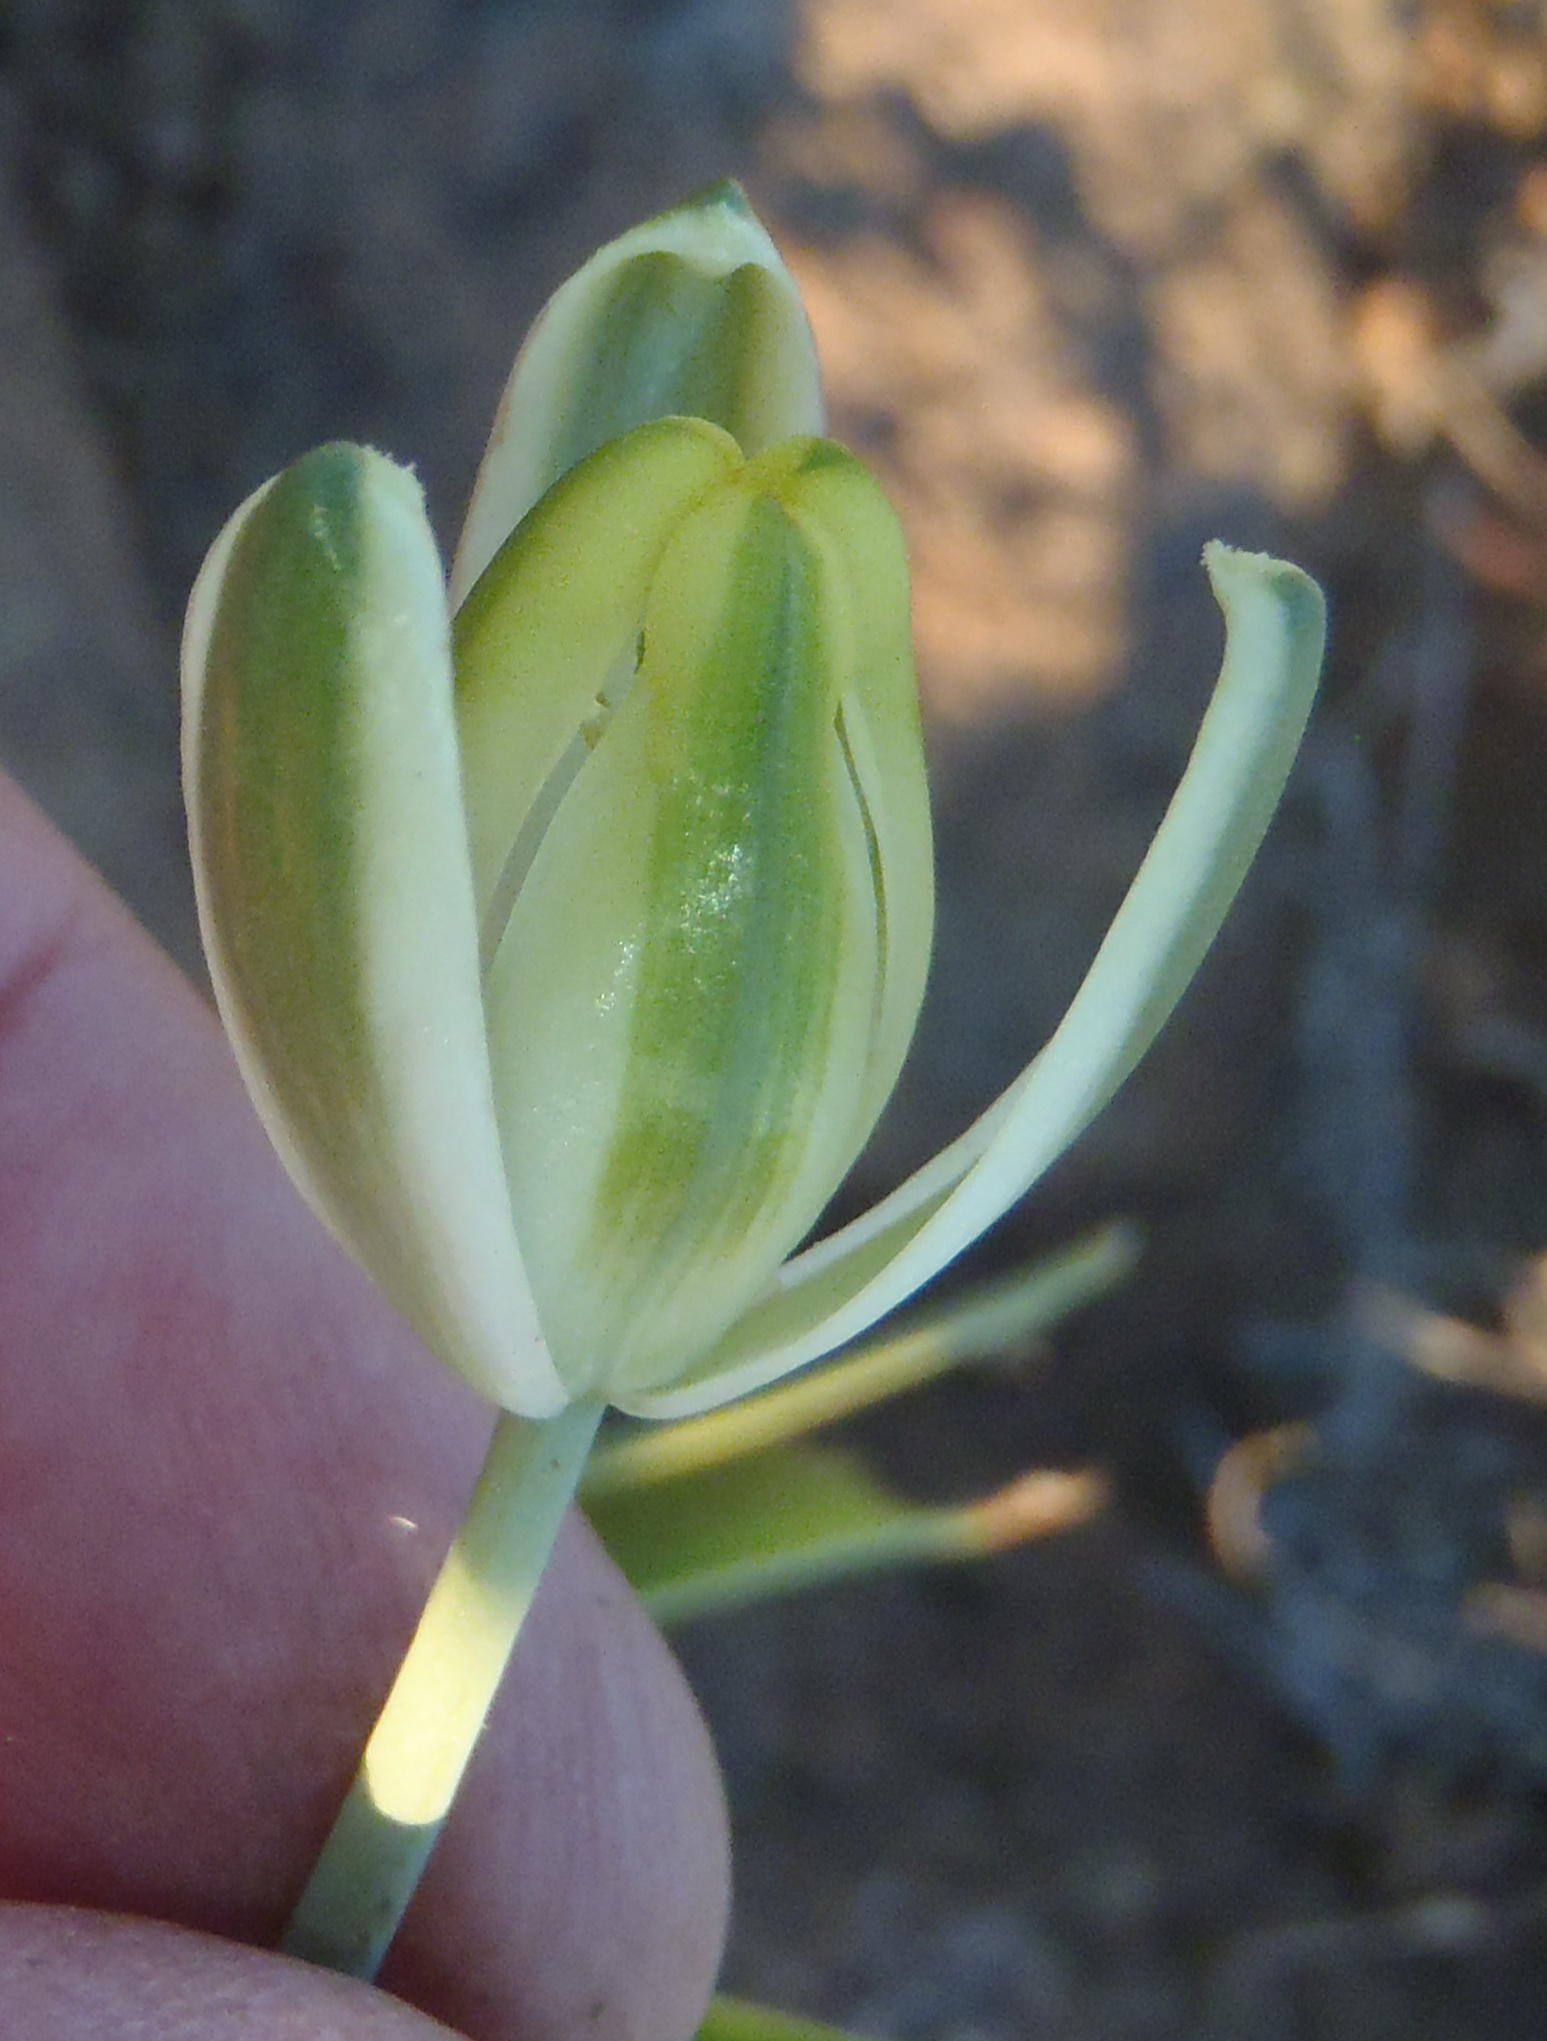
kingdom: Plantae
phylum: Tracheophyta
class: Liliopsida
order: Asparagales
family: Asparagaceae
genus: Albuca
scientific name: Albuca setosa
